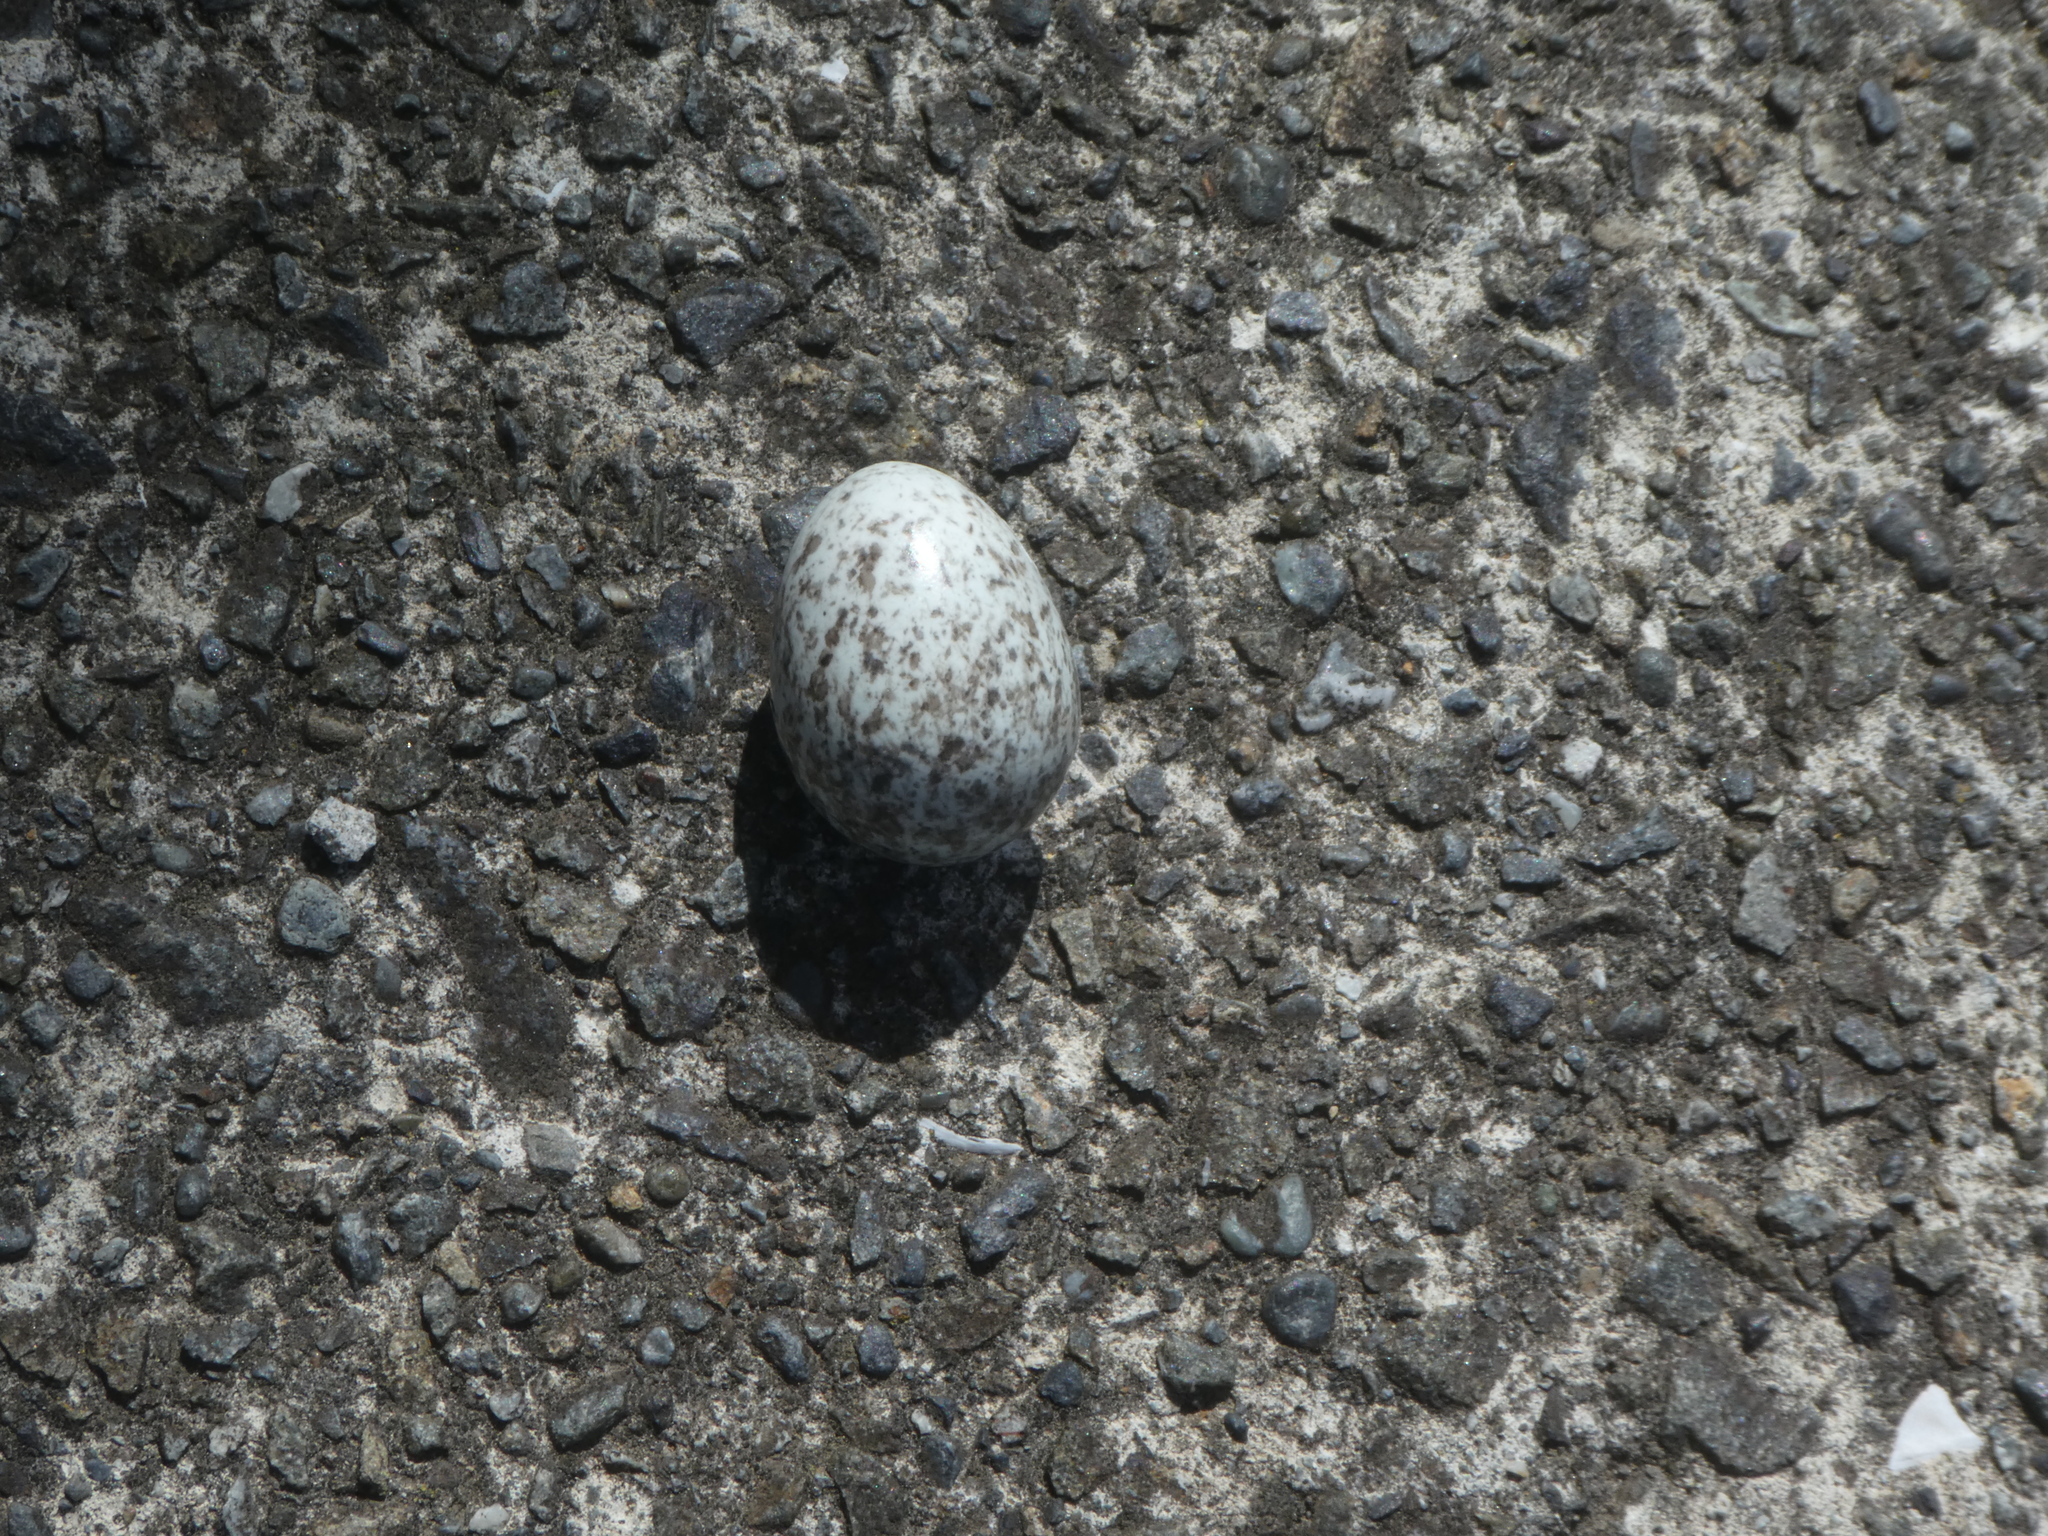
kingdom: Animalia
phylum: Chordata
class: Aves
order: Passeriformes
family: Passeridae
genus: Passer
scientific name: Passer domesticus
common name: House sparrow
